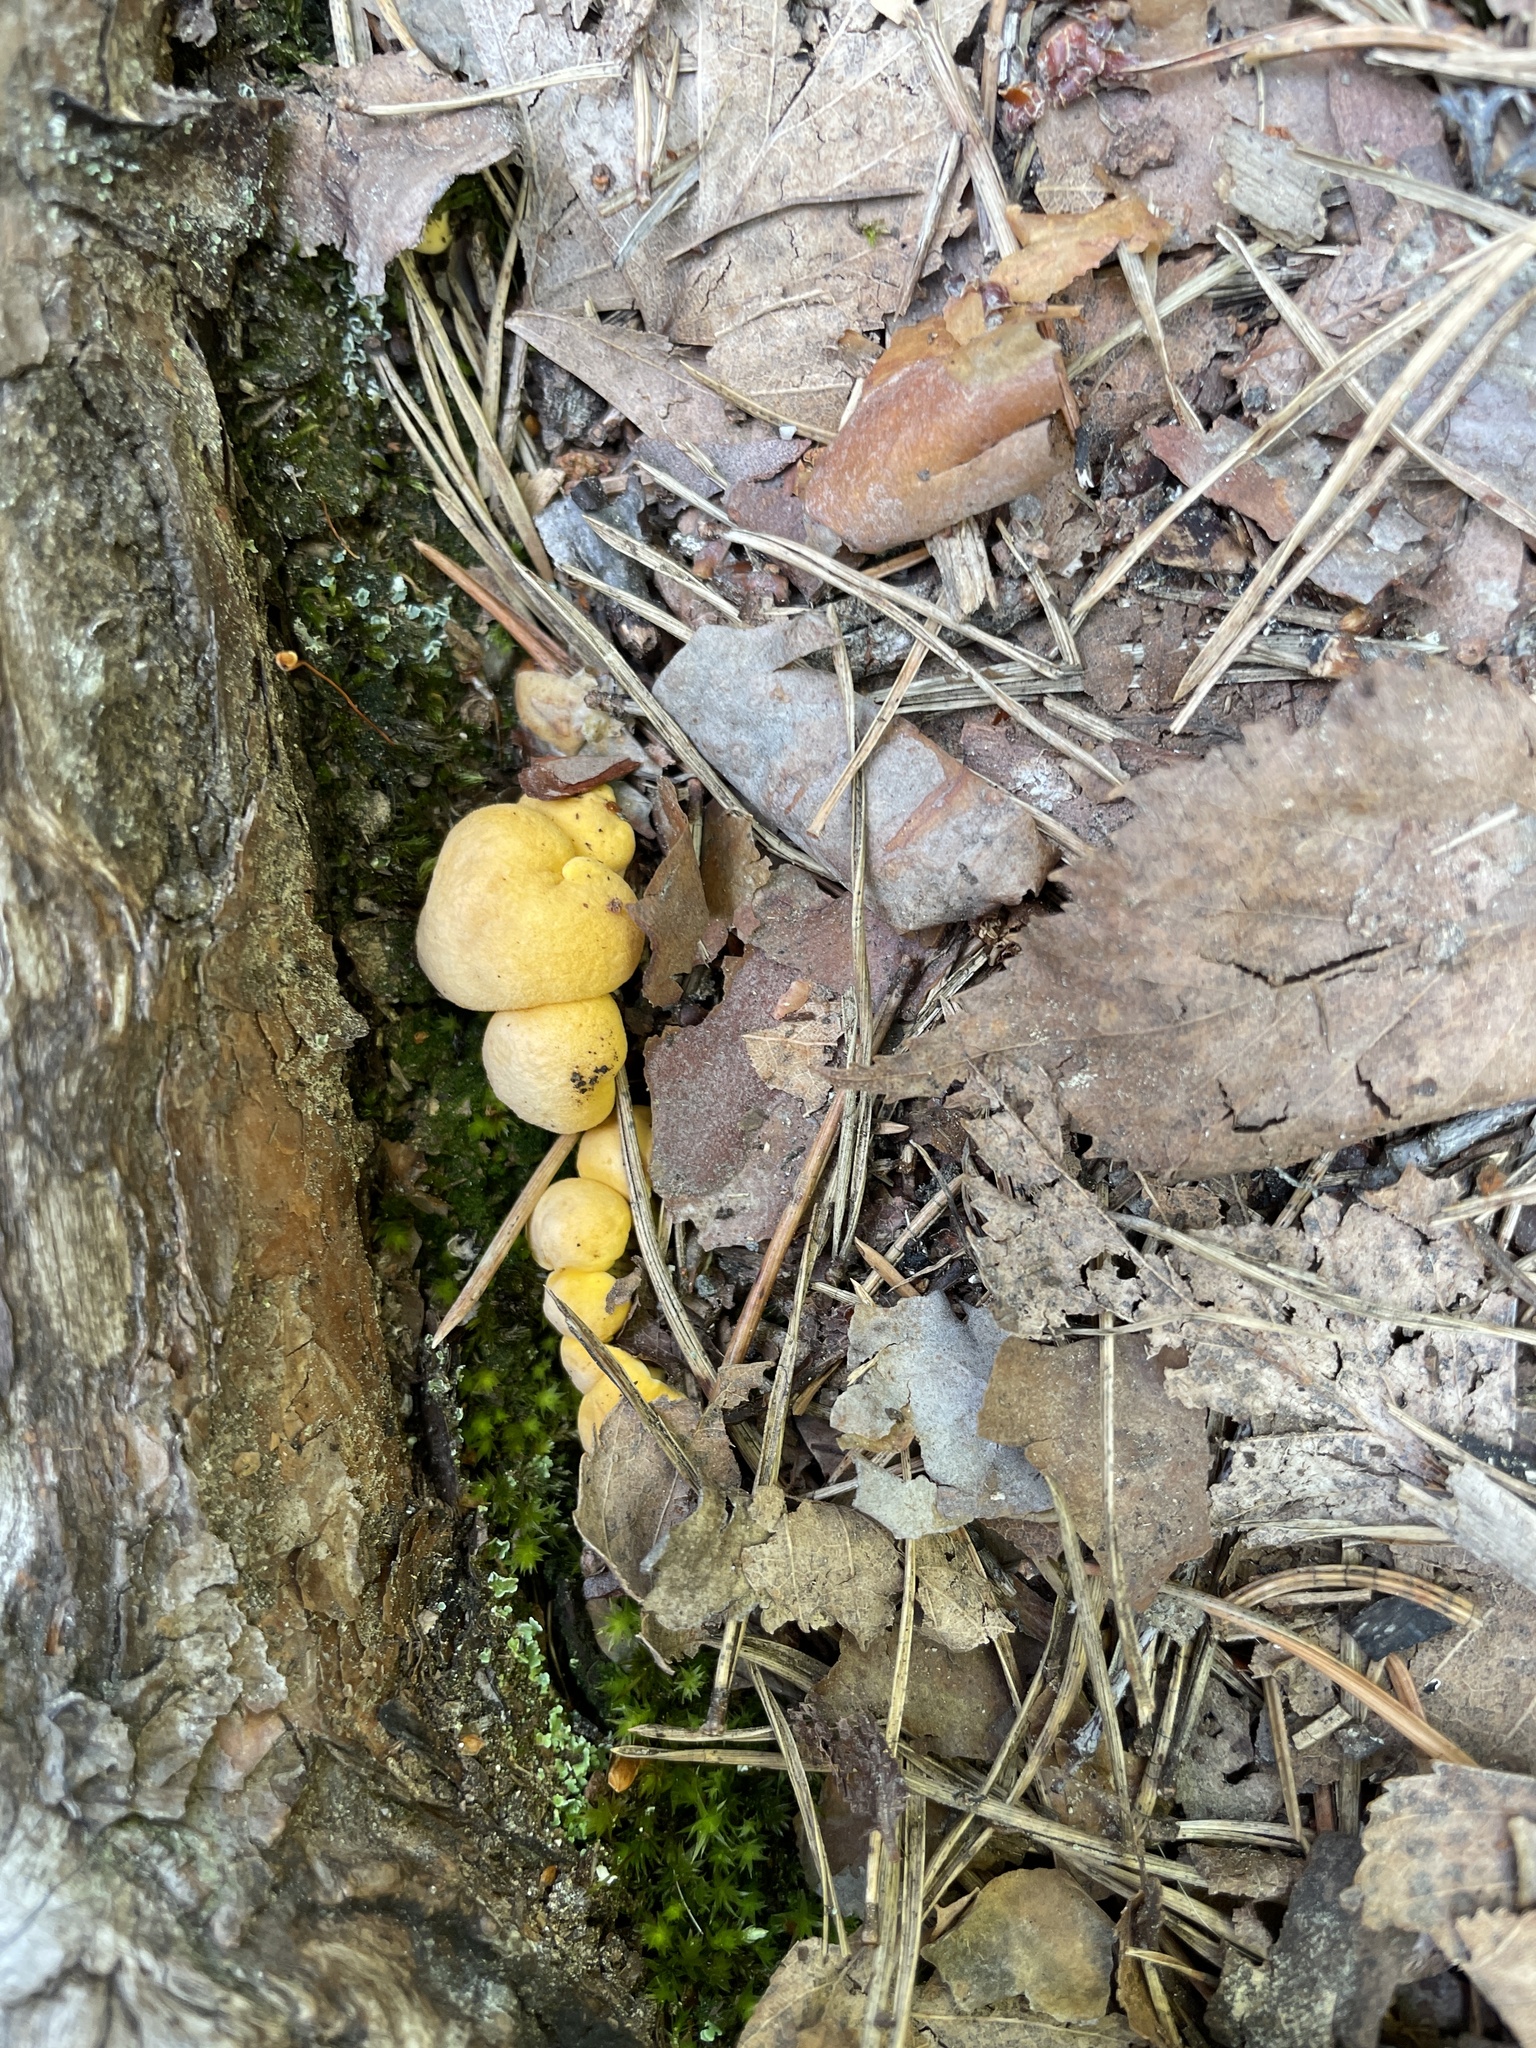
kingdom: Fungi
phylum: Basidiomycota
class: Agaricomycetes
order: Cantharellales
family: Hydnaceae
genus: Cantharellus
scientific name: Cantharellus cibarius
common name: Chanterelle
